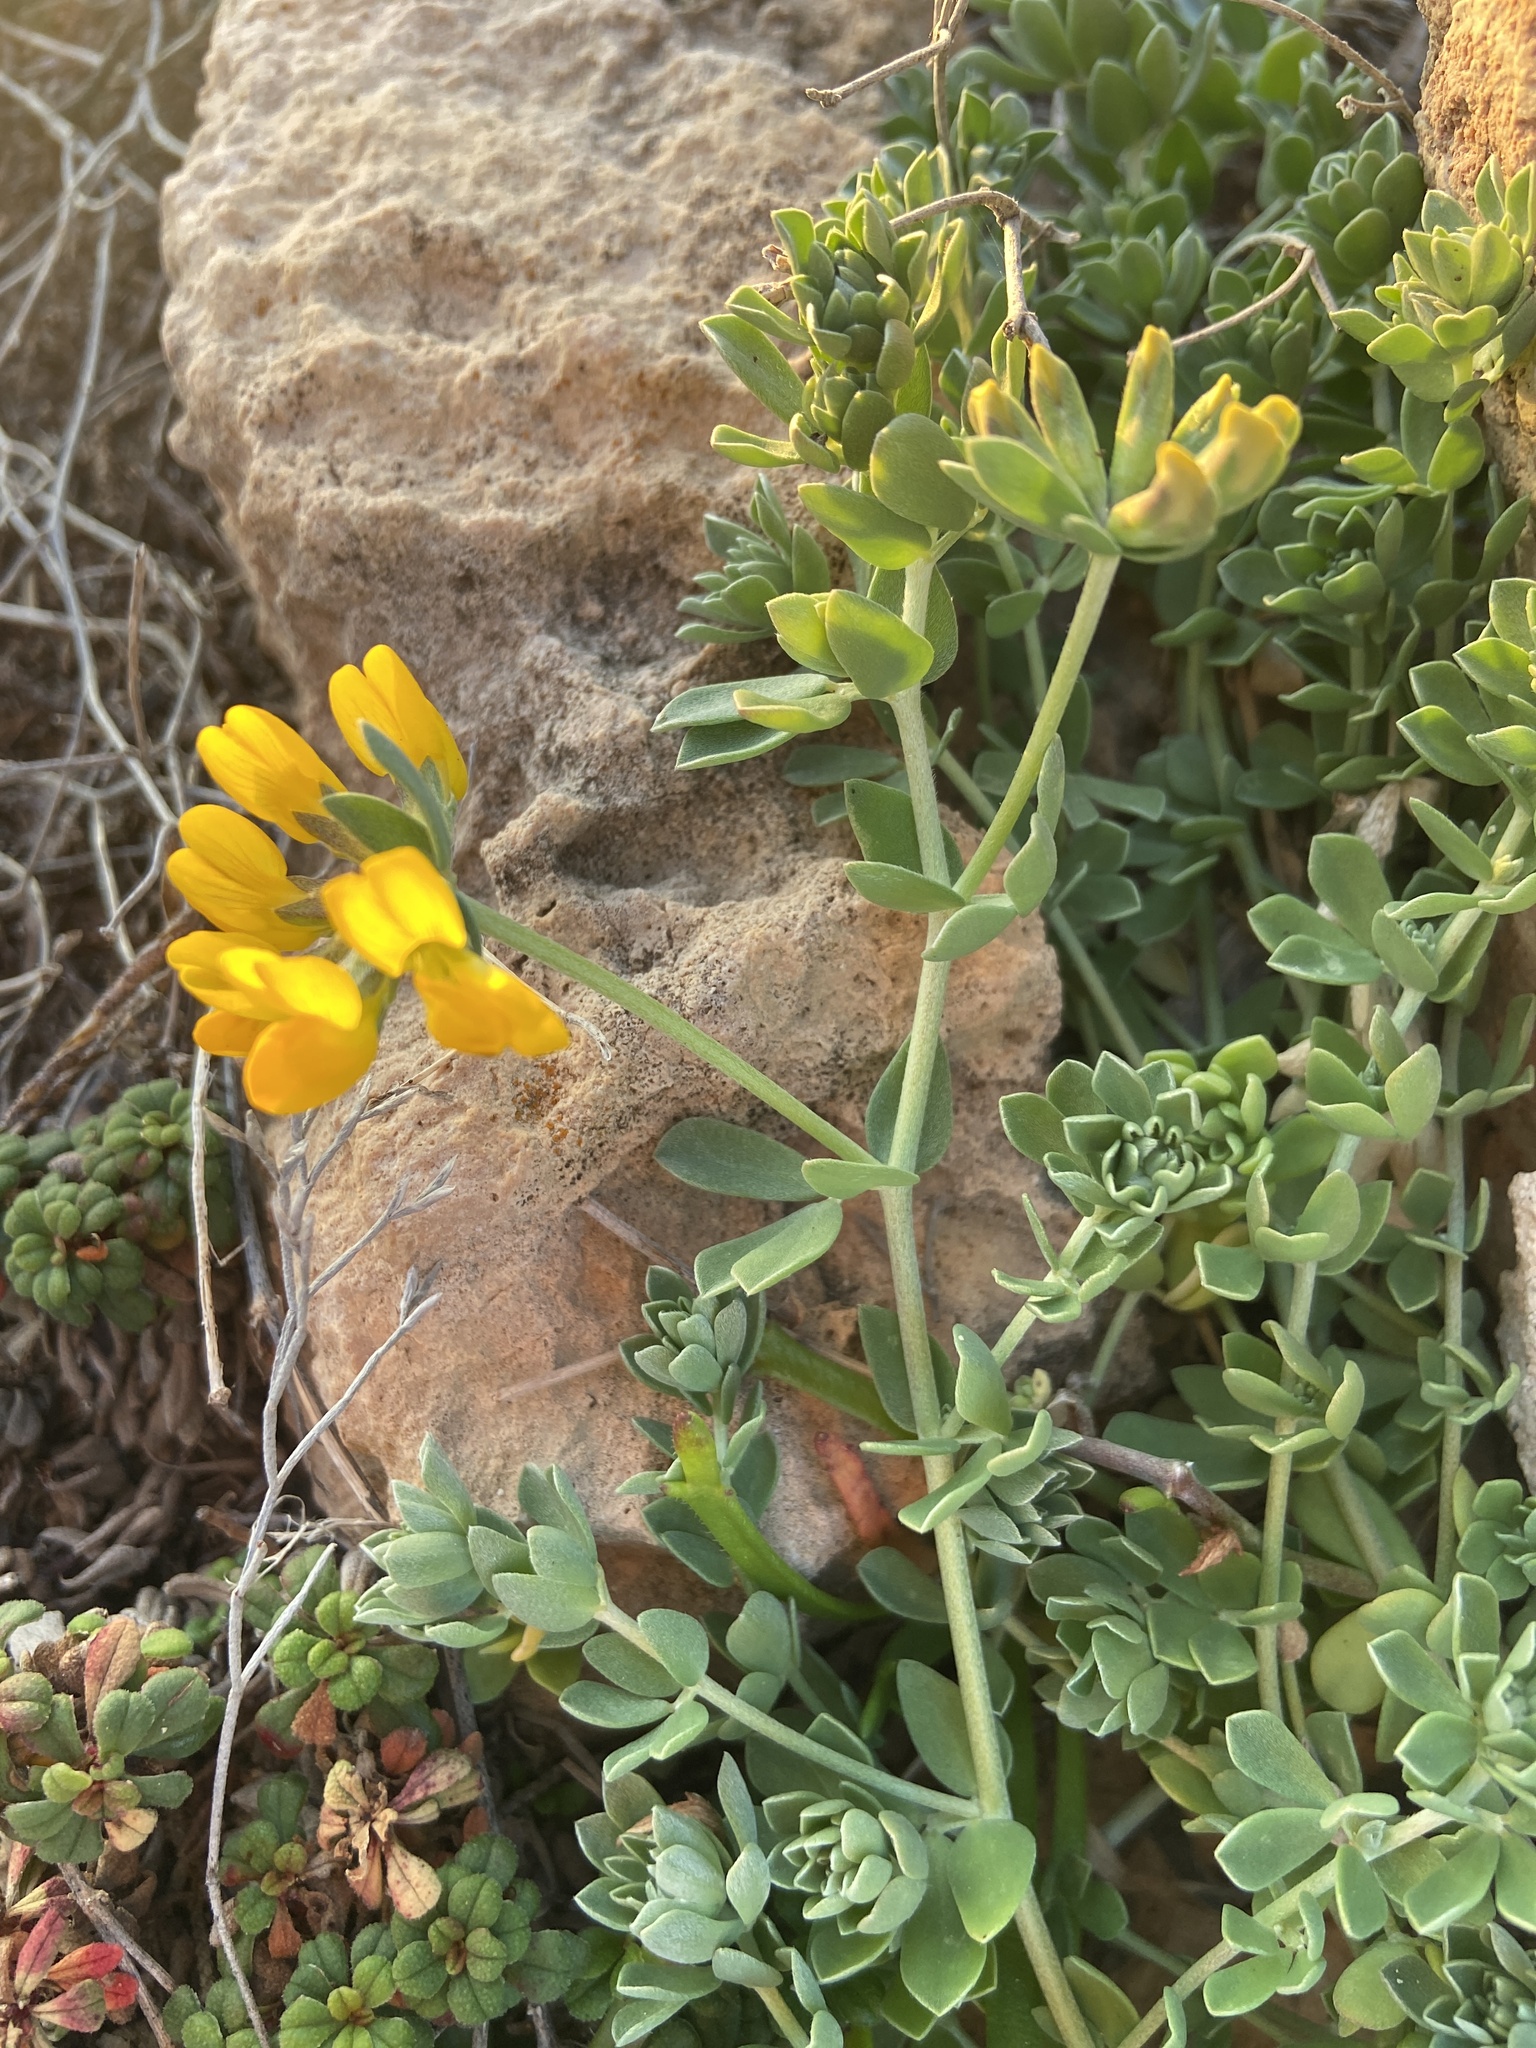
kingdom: Plantae
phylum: Tracheophyta
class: Magnoliopsida
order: Fabales
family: Fabaceae
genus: Lotus
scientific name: Lotus cytisoides
